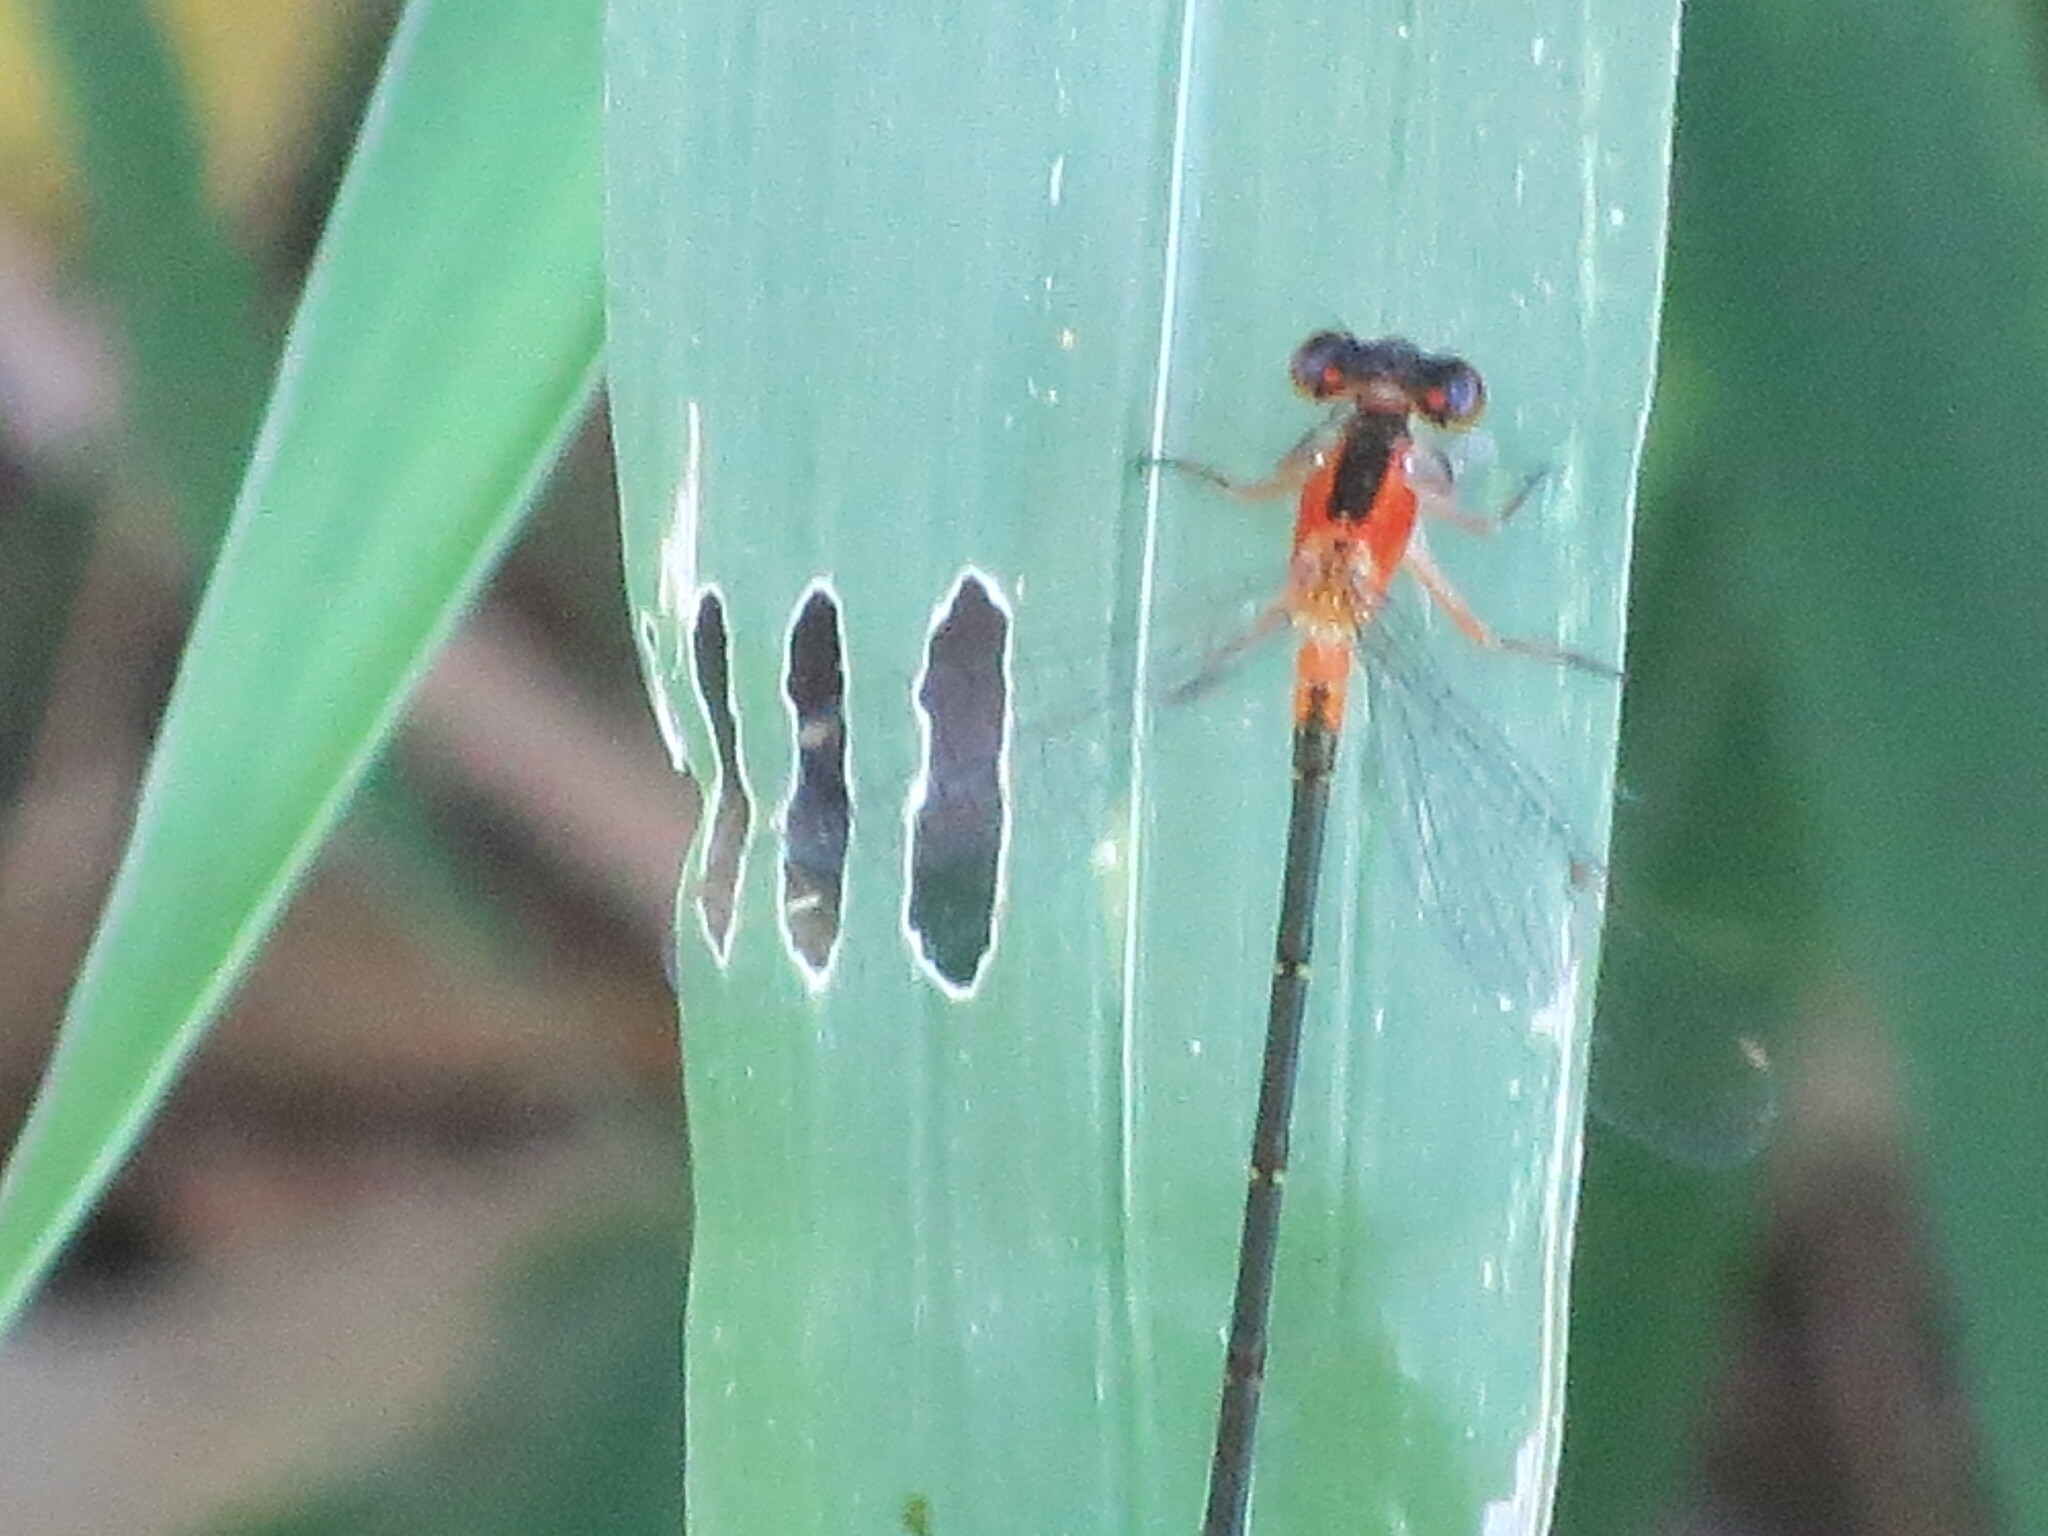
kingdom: Animalia
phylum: Arthropoda
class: Insecta
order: Odonata
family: Coenagrionidae
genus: Ischnura
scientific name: Ischnura ramburii
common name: Rambur's forktail
